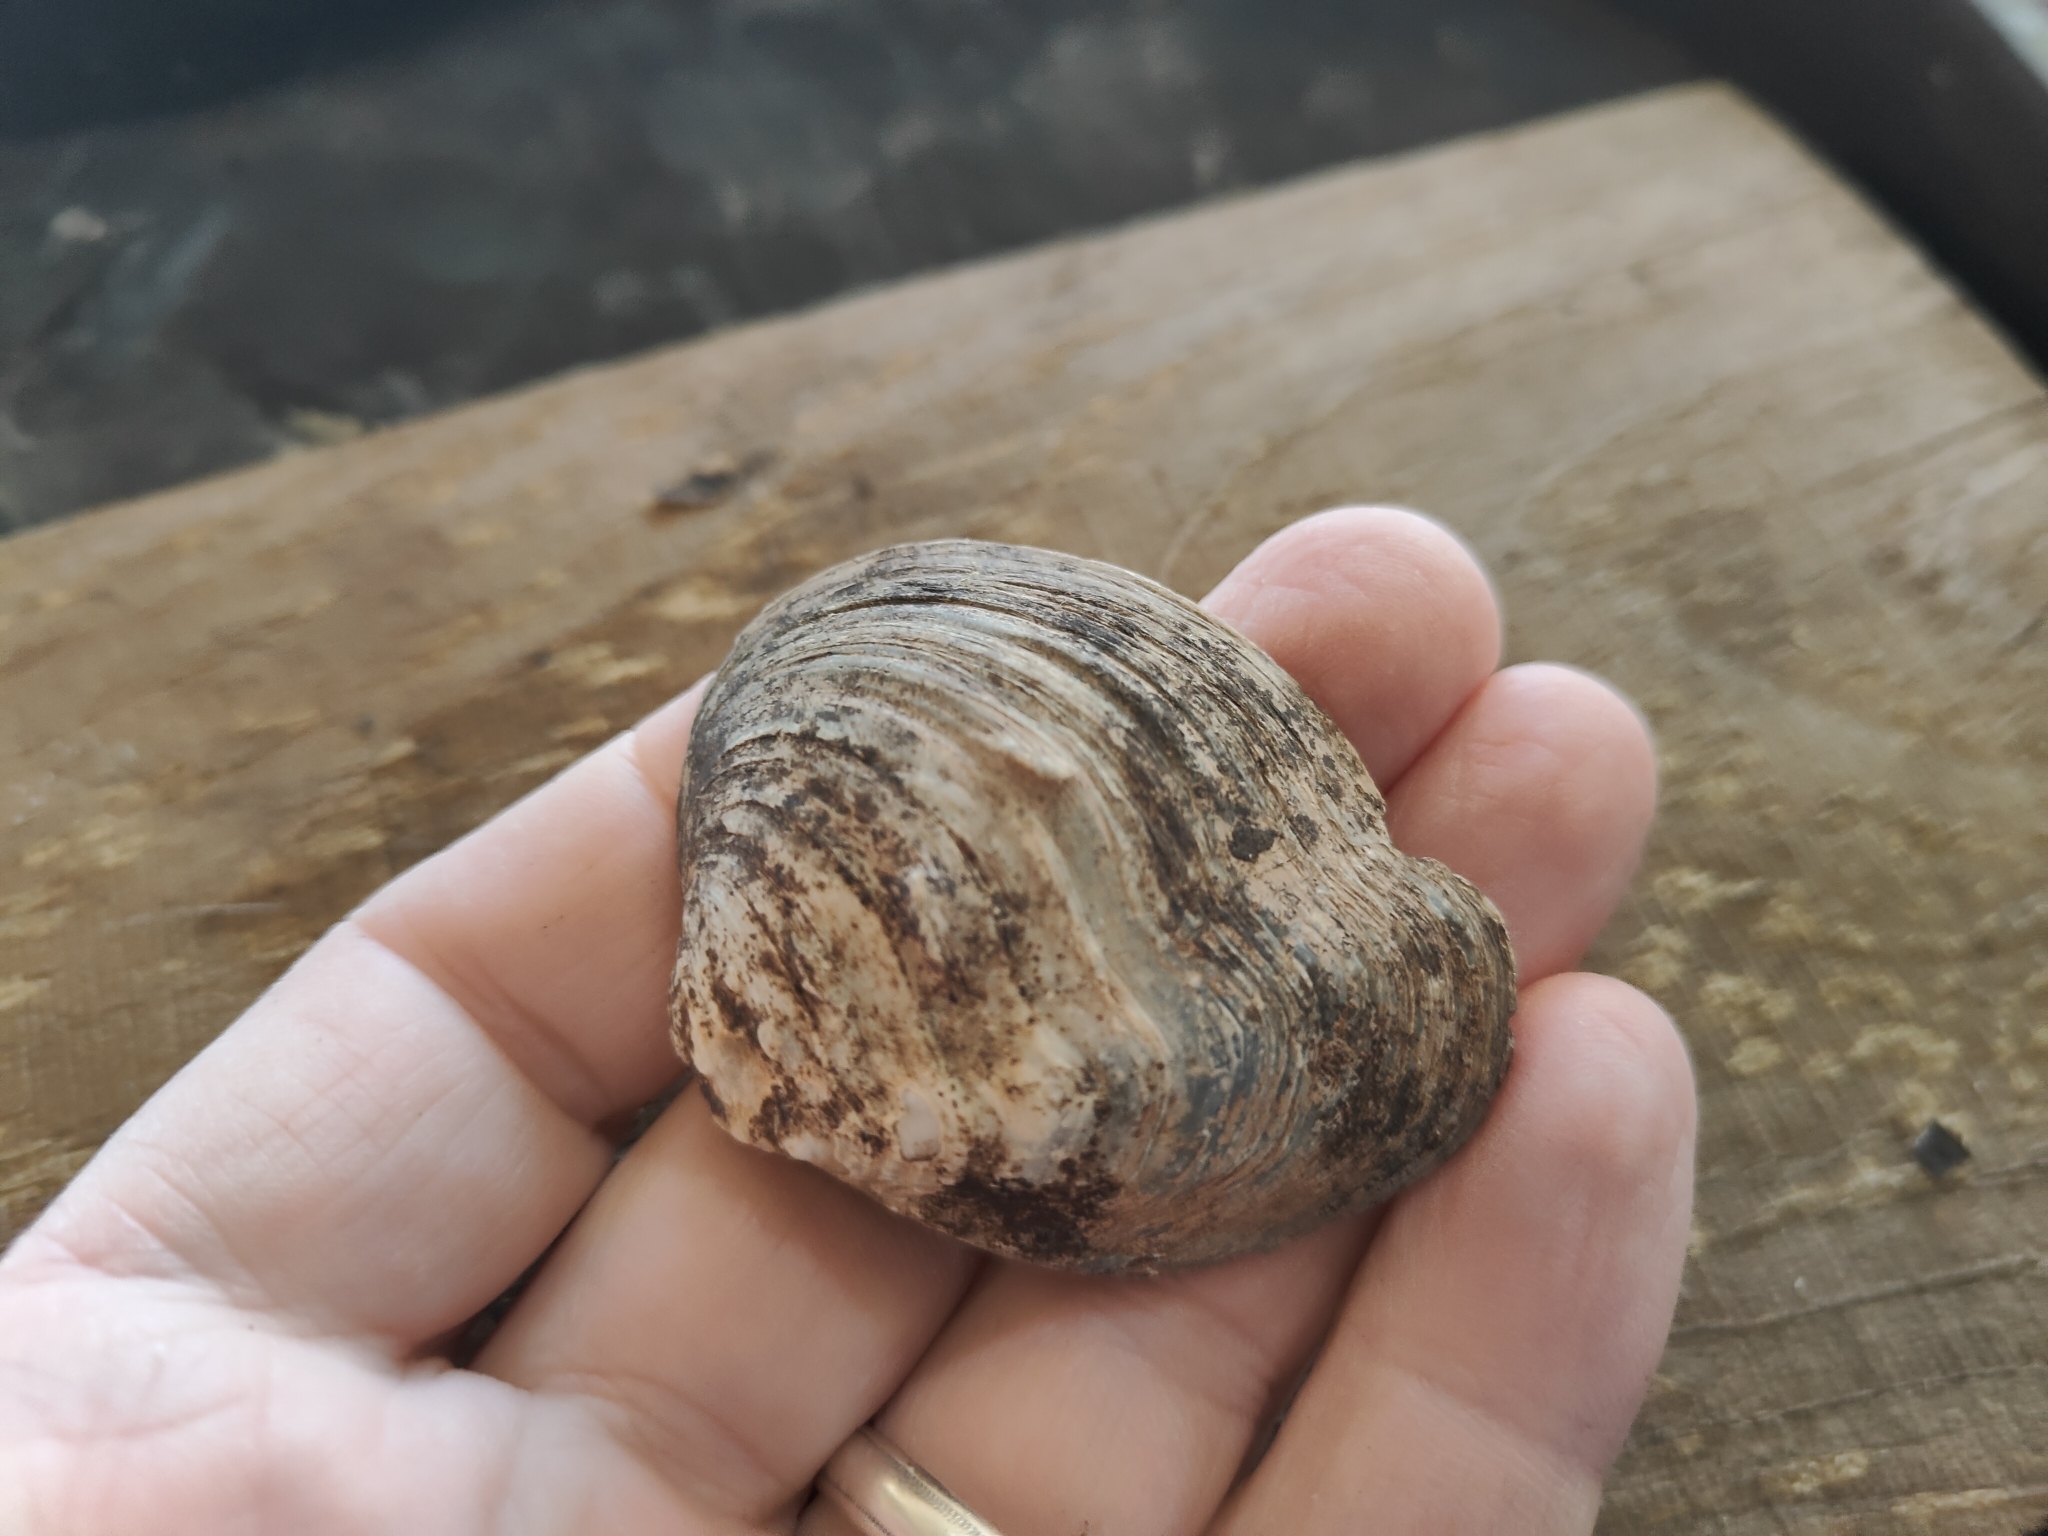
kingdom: Animalia
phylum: Mollusca
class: Bivalvia
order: Unionida
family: Unionidae
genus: Quadrula
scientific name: Quadrula quadrula
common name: Mapleleaf
